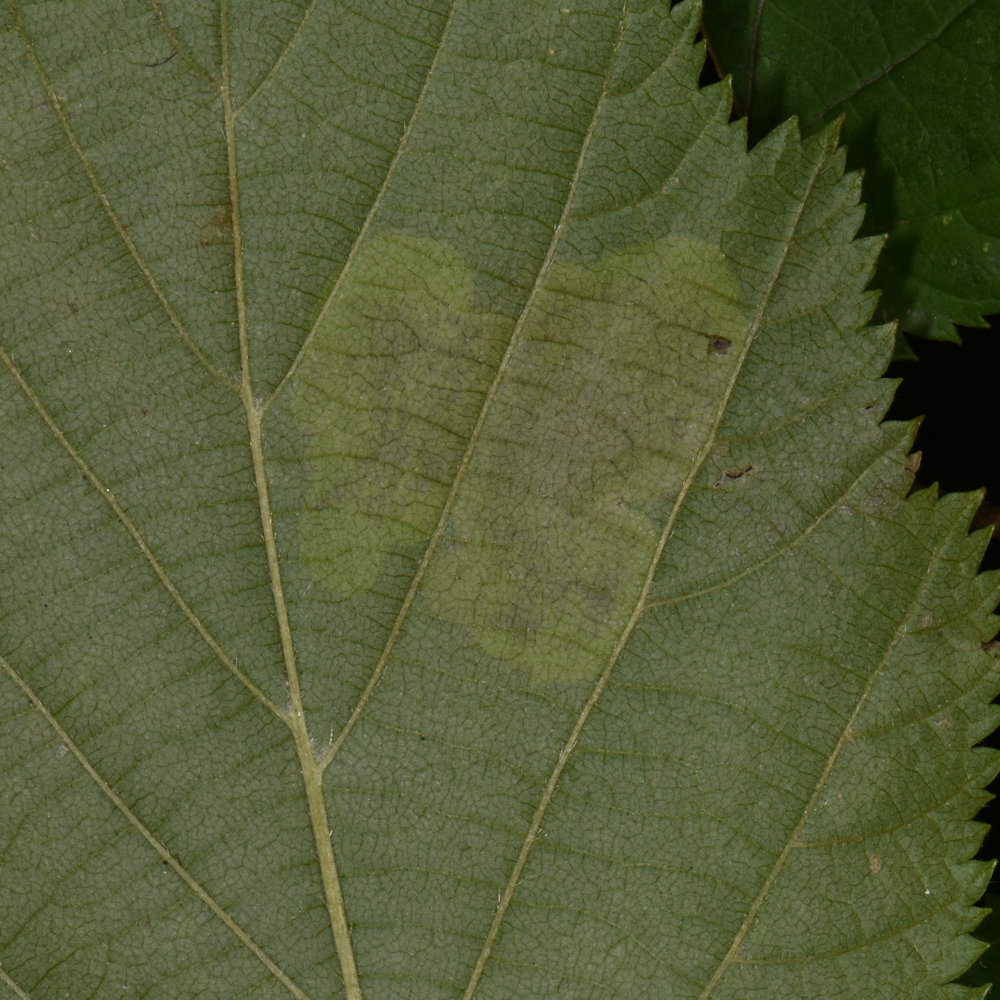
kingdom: Animalia
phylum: Arthropoda
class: Insecta
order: Lepidoptera
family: Gracillariidae
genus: Cameraria
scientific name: Cameraria corylisella
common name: Hazel blotchminer
